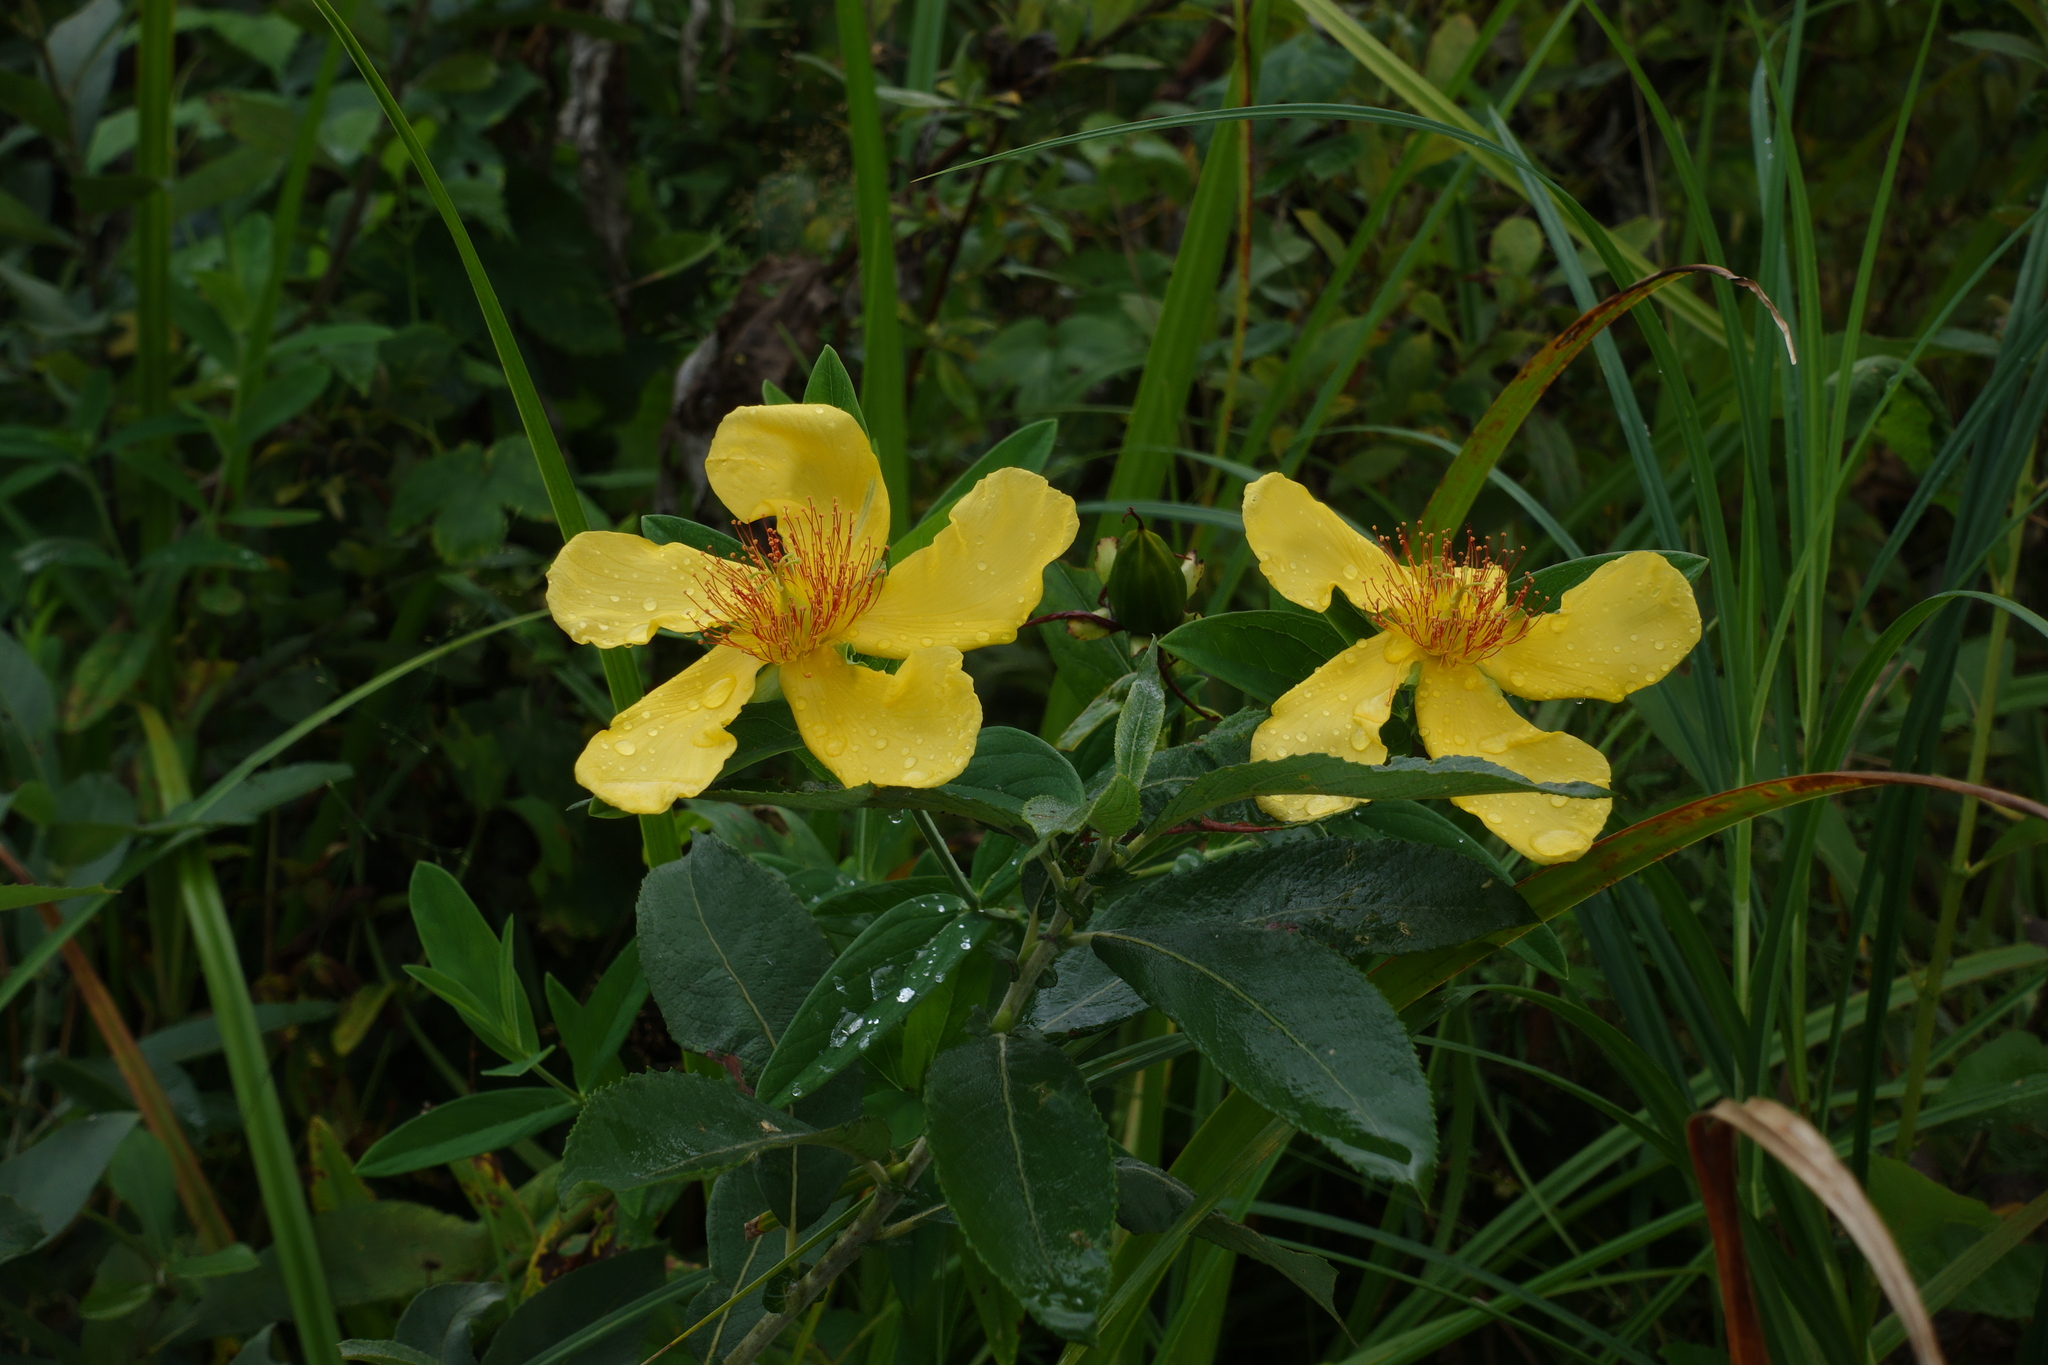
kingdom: Plantae
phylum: Tracheophyta
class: Magnoliopsida
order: Malpighiales
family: Hypericaceae
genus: Hypericum
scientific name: Hypericum ascyron
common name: Giant st. john's-wort
